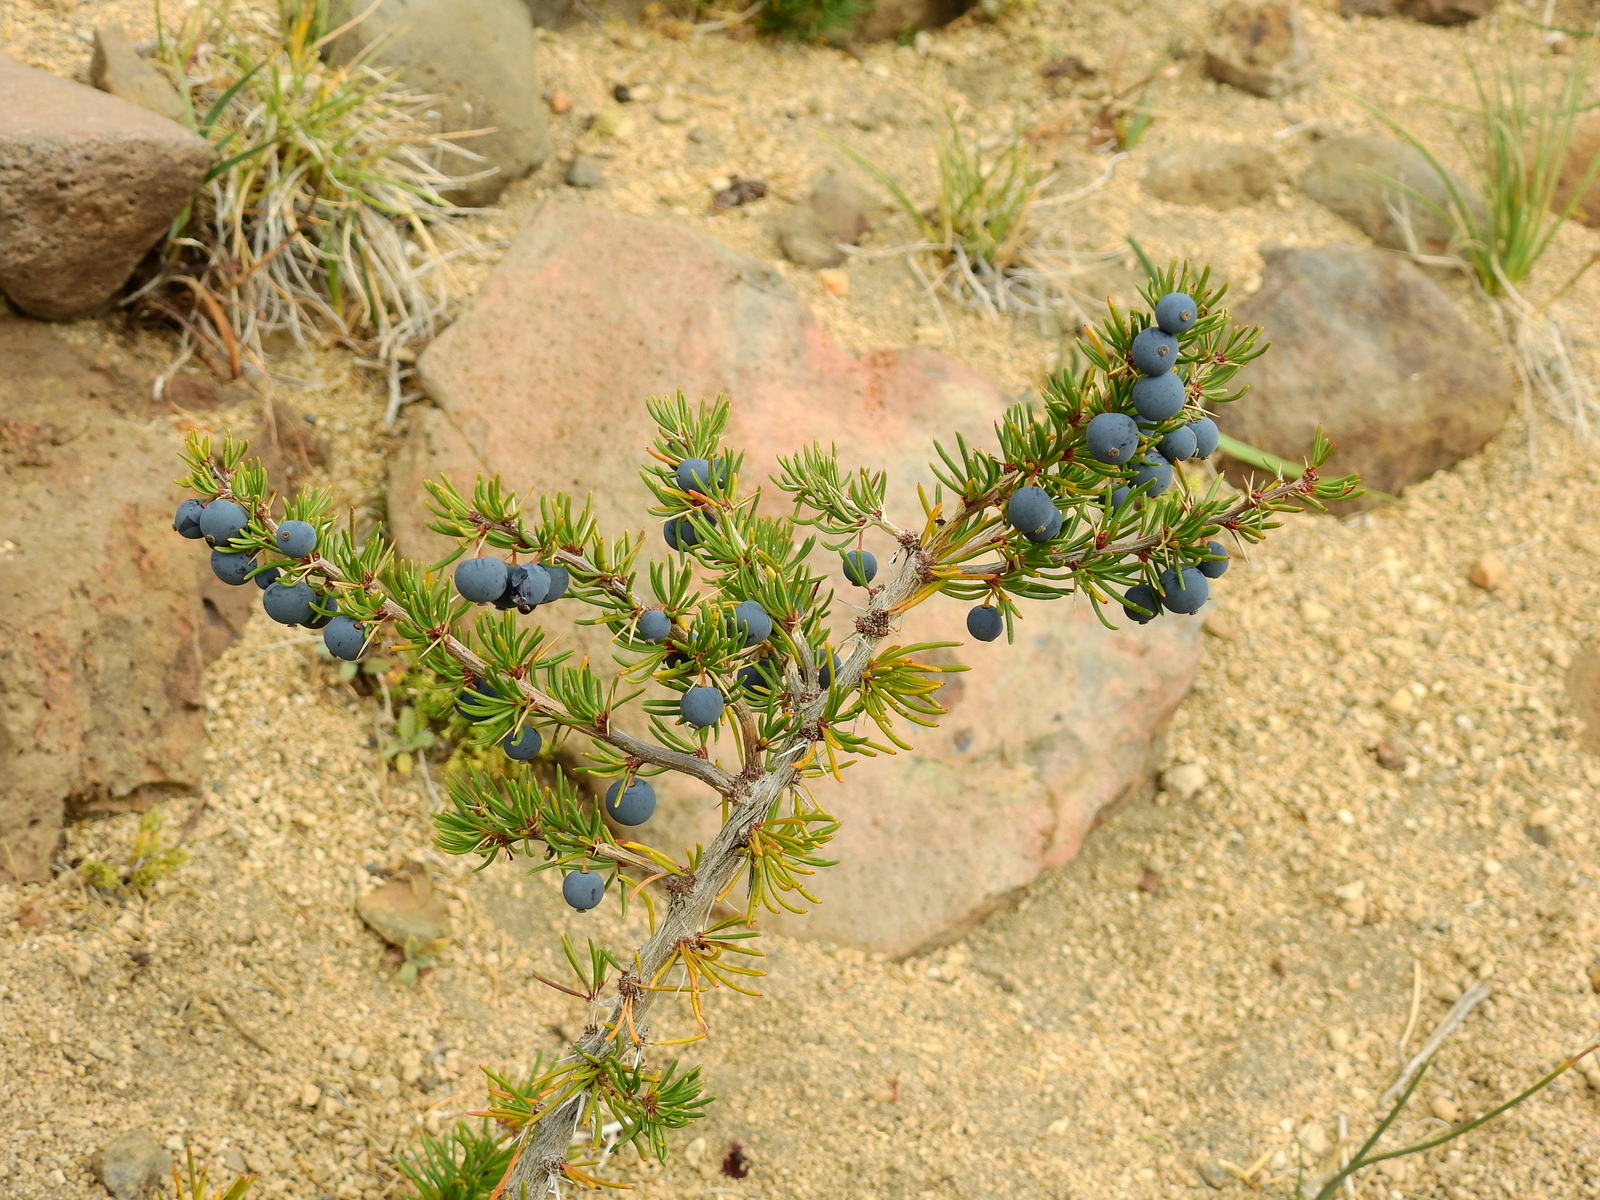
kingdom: Plantae
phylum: Tracheophyta
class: Magnoliopsida
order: Ranunculales
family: Berberidaceae
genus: Berberis
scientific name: Berberis empetrifolia
